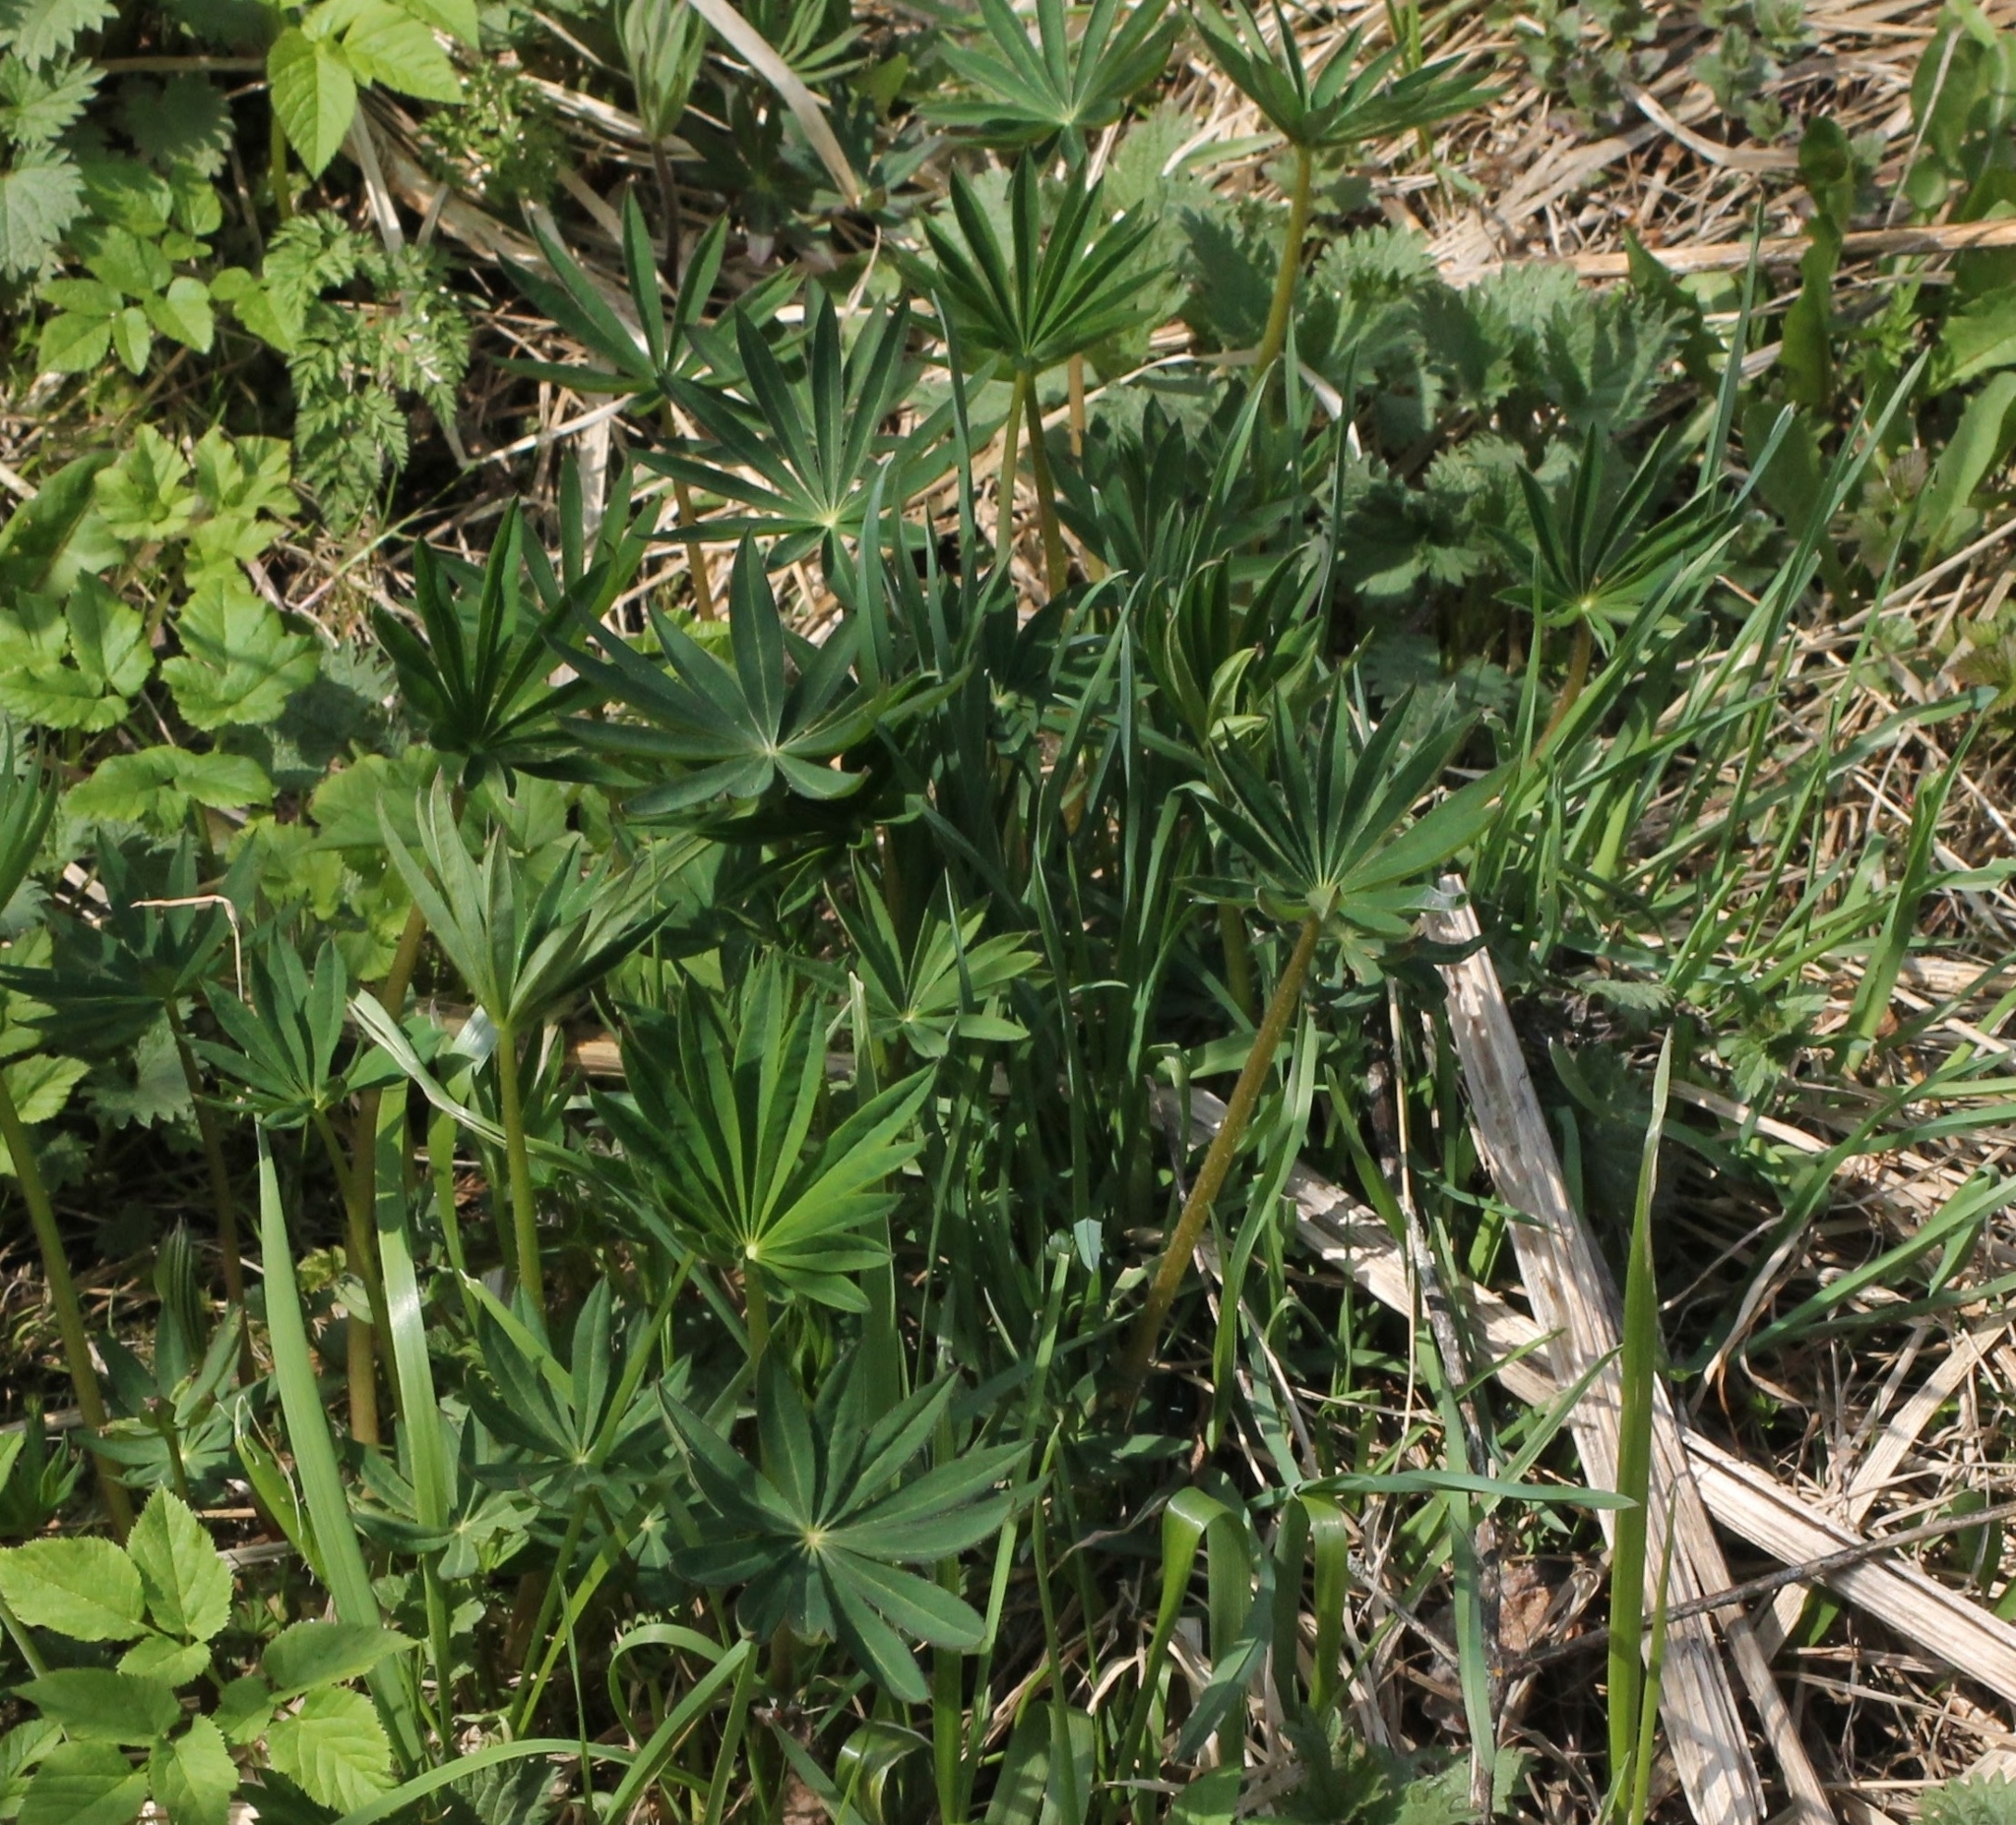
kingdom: Plantae
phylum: Tracheophyta
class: Magnoliopsida
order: Fabales
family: Fabaceae
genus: Lupinus
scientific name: Lupinus polyphyllus
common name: Garden lupin
